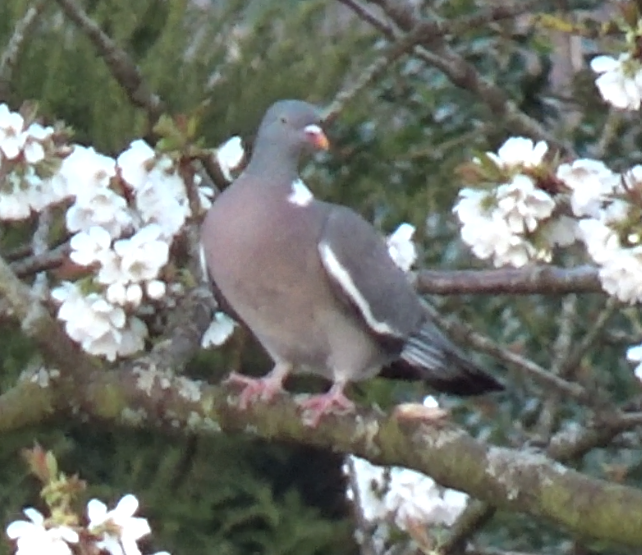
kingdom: Animalia
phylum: Chordata
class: Aves
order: Columbiformes
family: Columbidae
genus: Columba
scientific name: Columba palumbus
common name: Common wood pigeon
